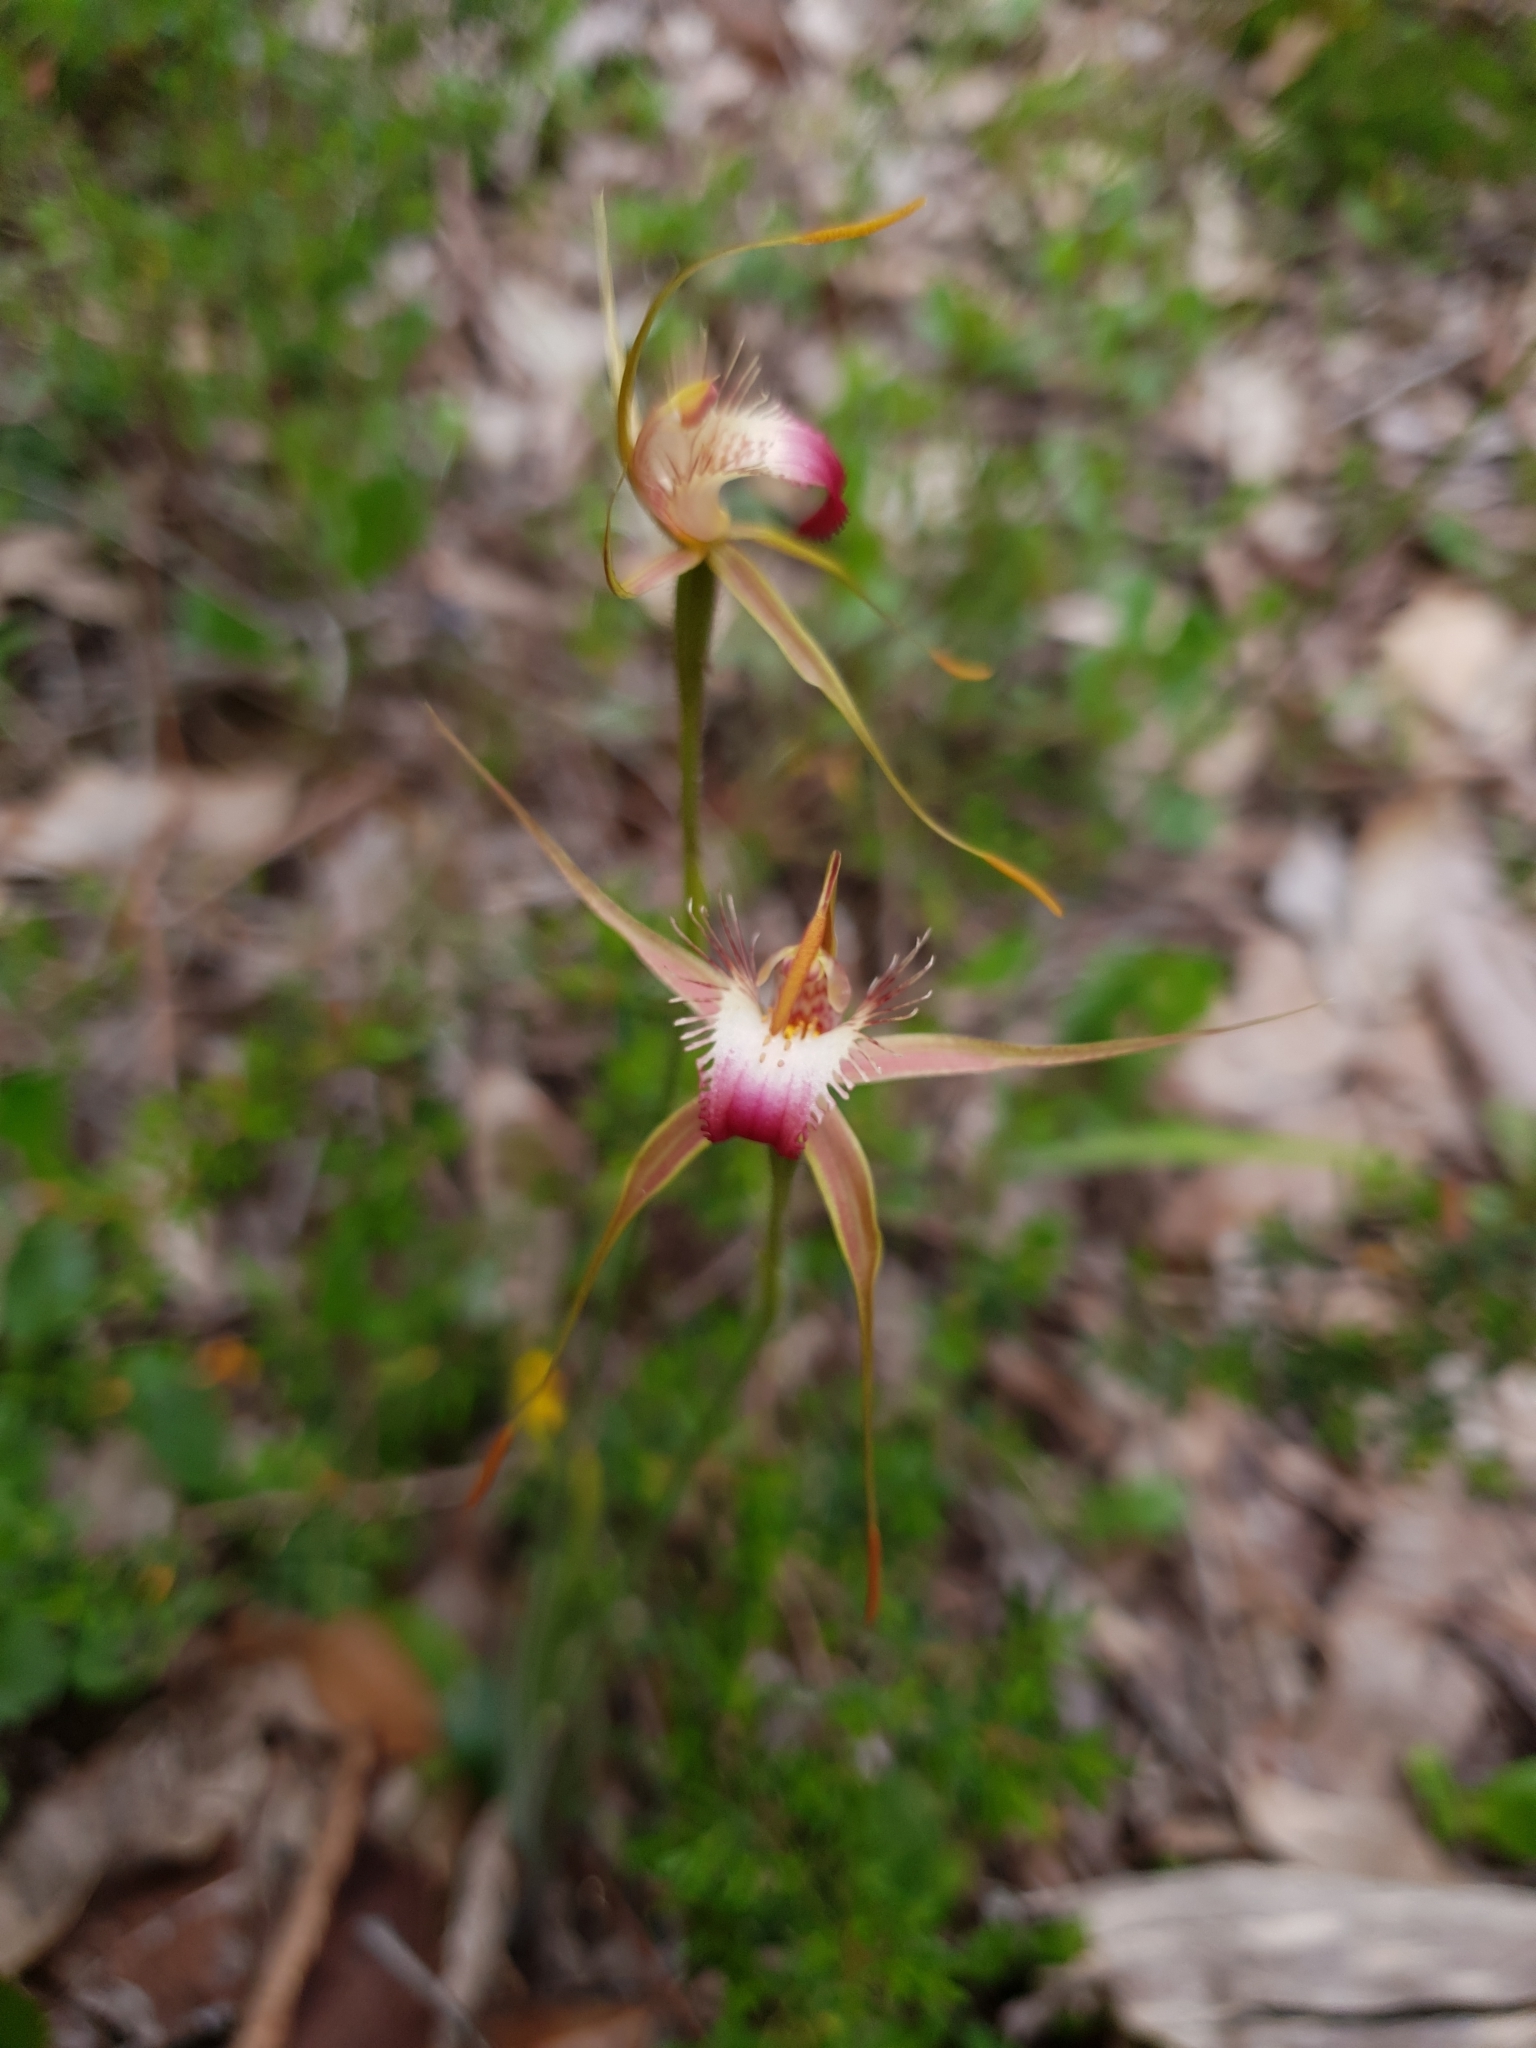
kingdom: Plantae
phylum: Tracheophyta
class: Liliopsida
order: Asparagales
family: Orchidaceae
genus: Caladenia
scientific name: Caladenia ferruginea
